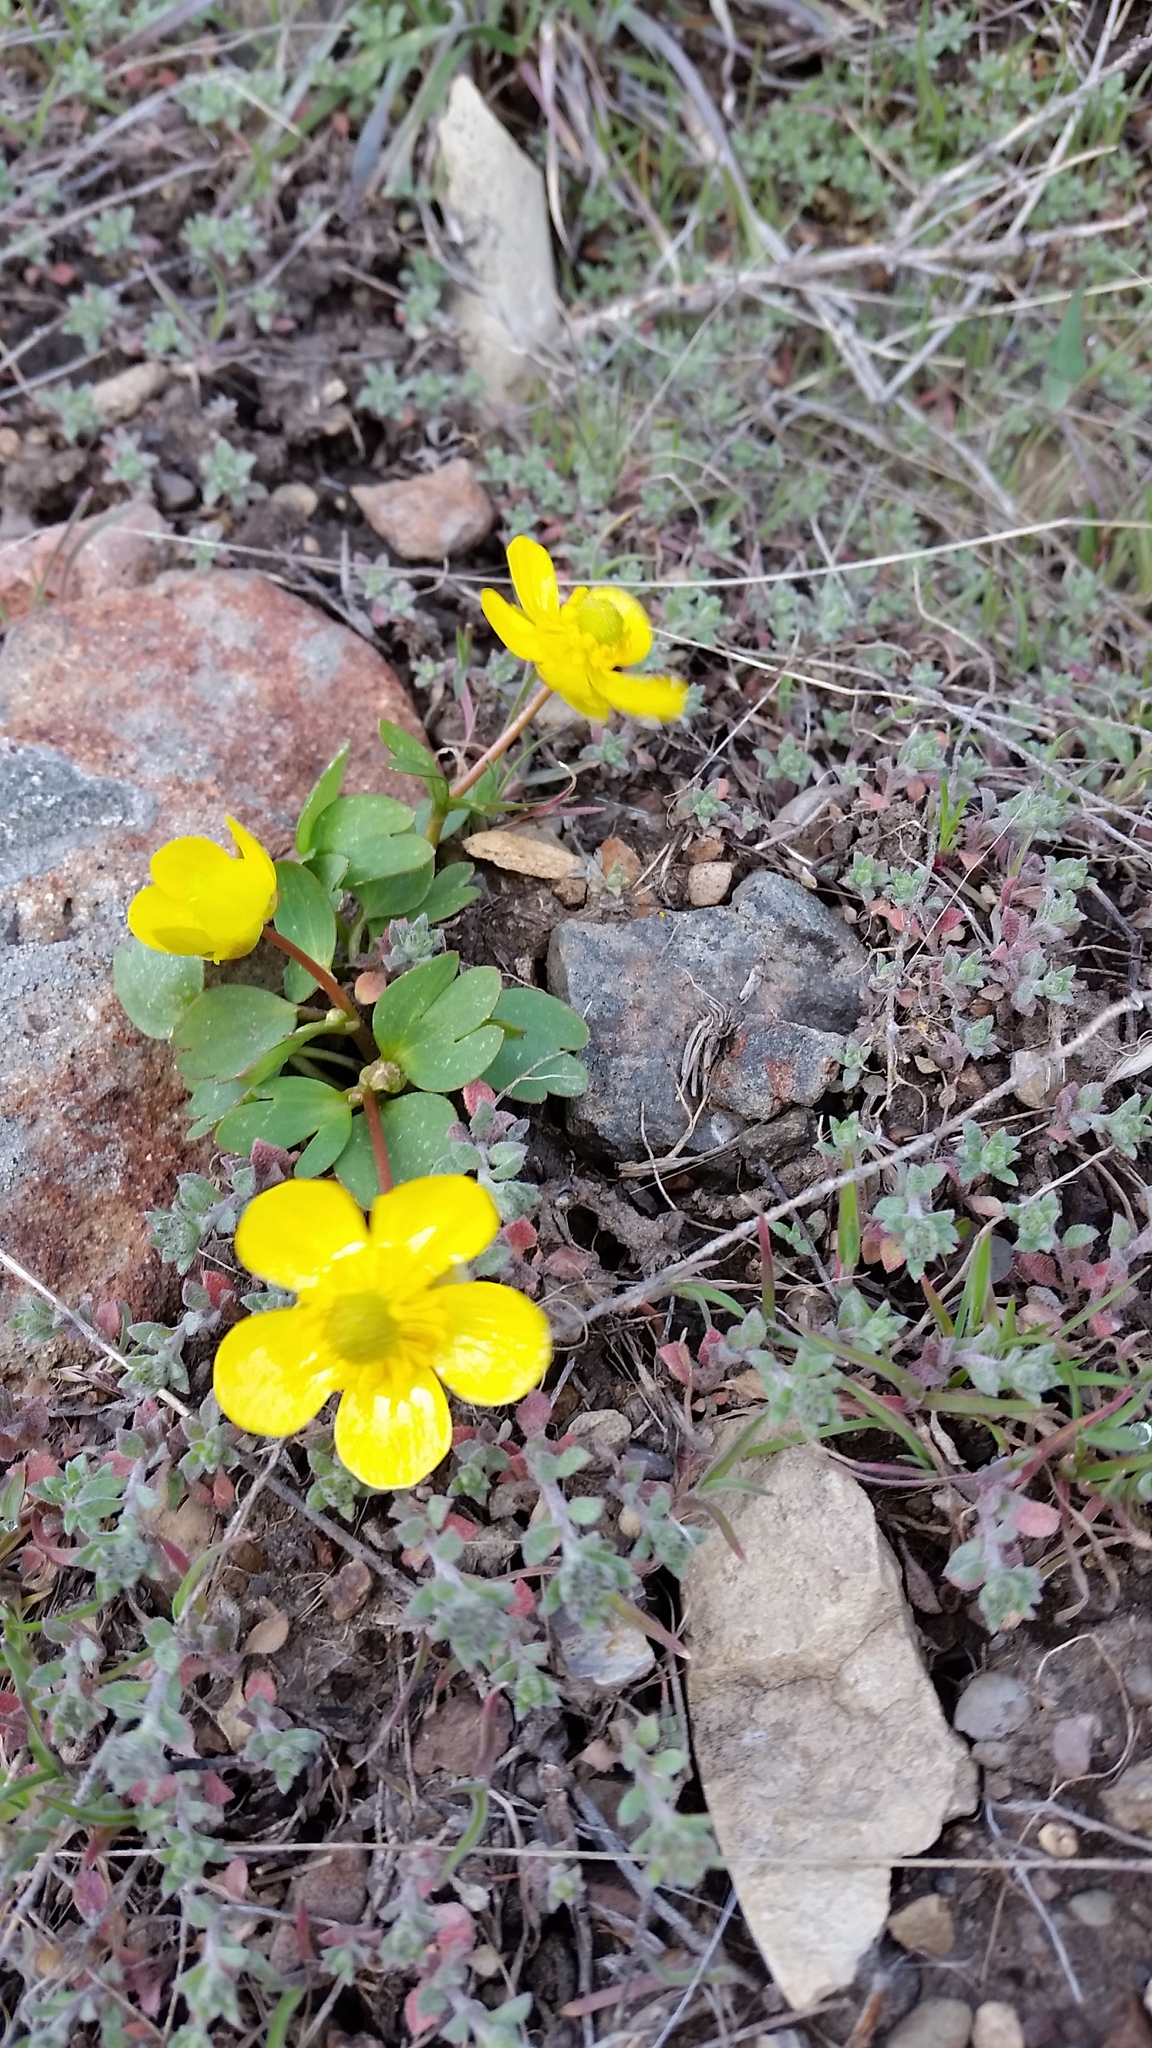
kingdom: Plantae
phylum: Tracheophyta
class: Magnoliopsida
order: Ranunculales
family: Ranunculaceae
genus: Ranunculus
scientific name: Ranunculus glaberrimus
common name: Sagebrush buttercup
